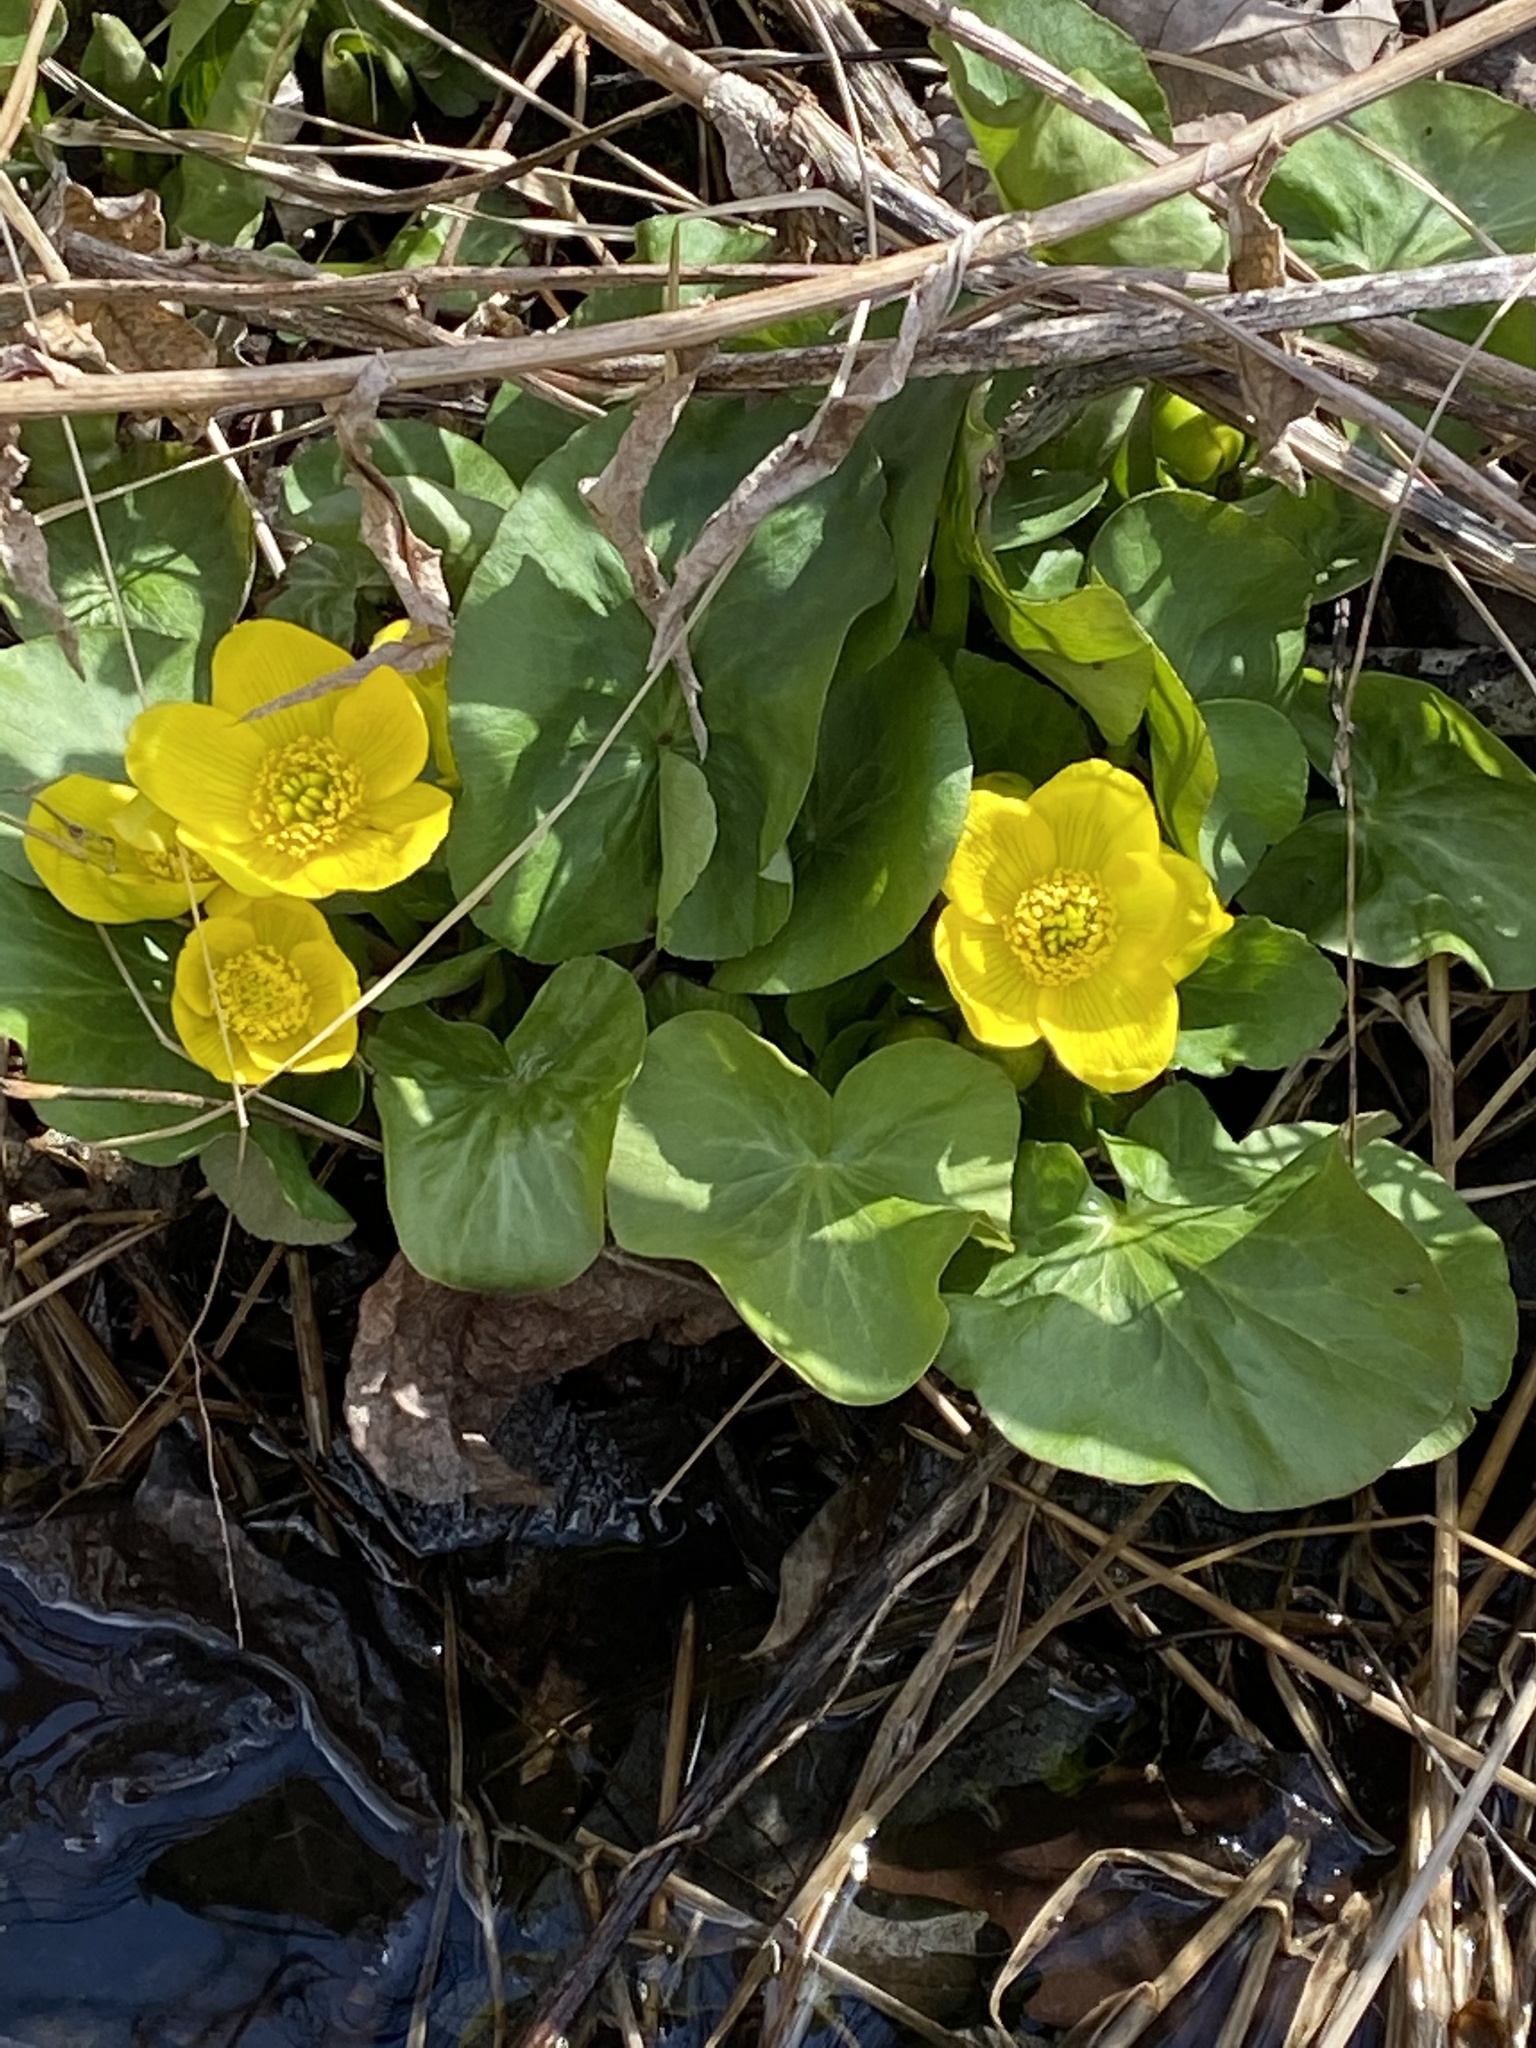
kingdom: Plantae
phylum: Tracheophyta
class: Magnoliopsida
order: Ranunculales
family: Ranunculaceae
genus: Caltha
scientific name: Caltha palustris
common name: Marsh marigold
